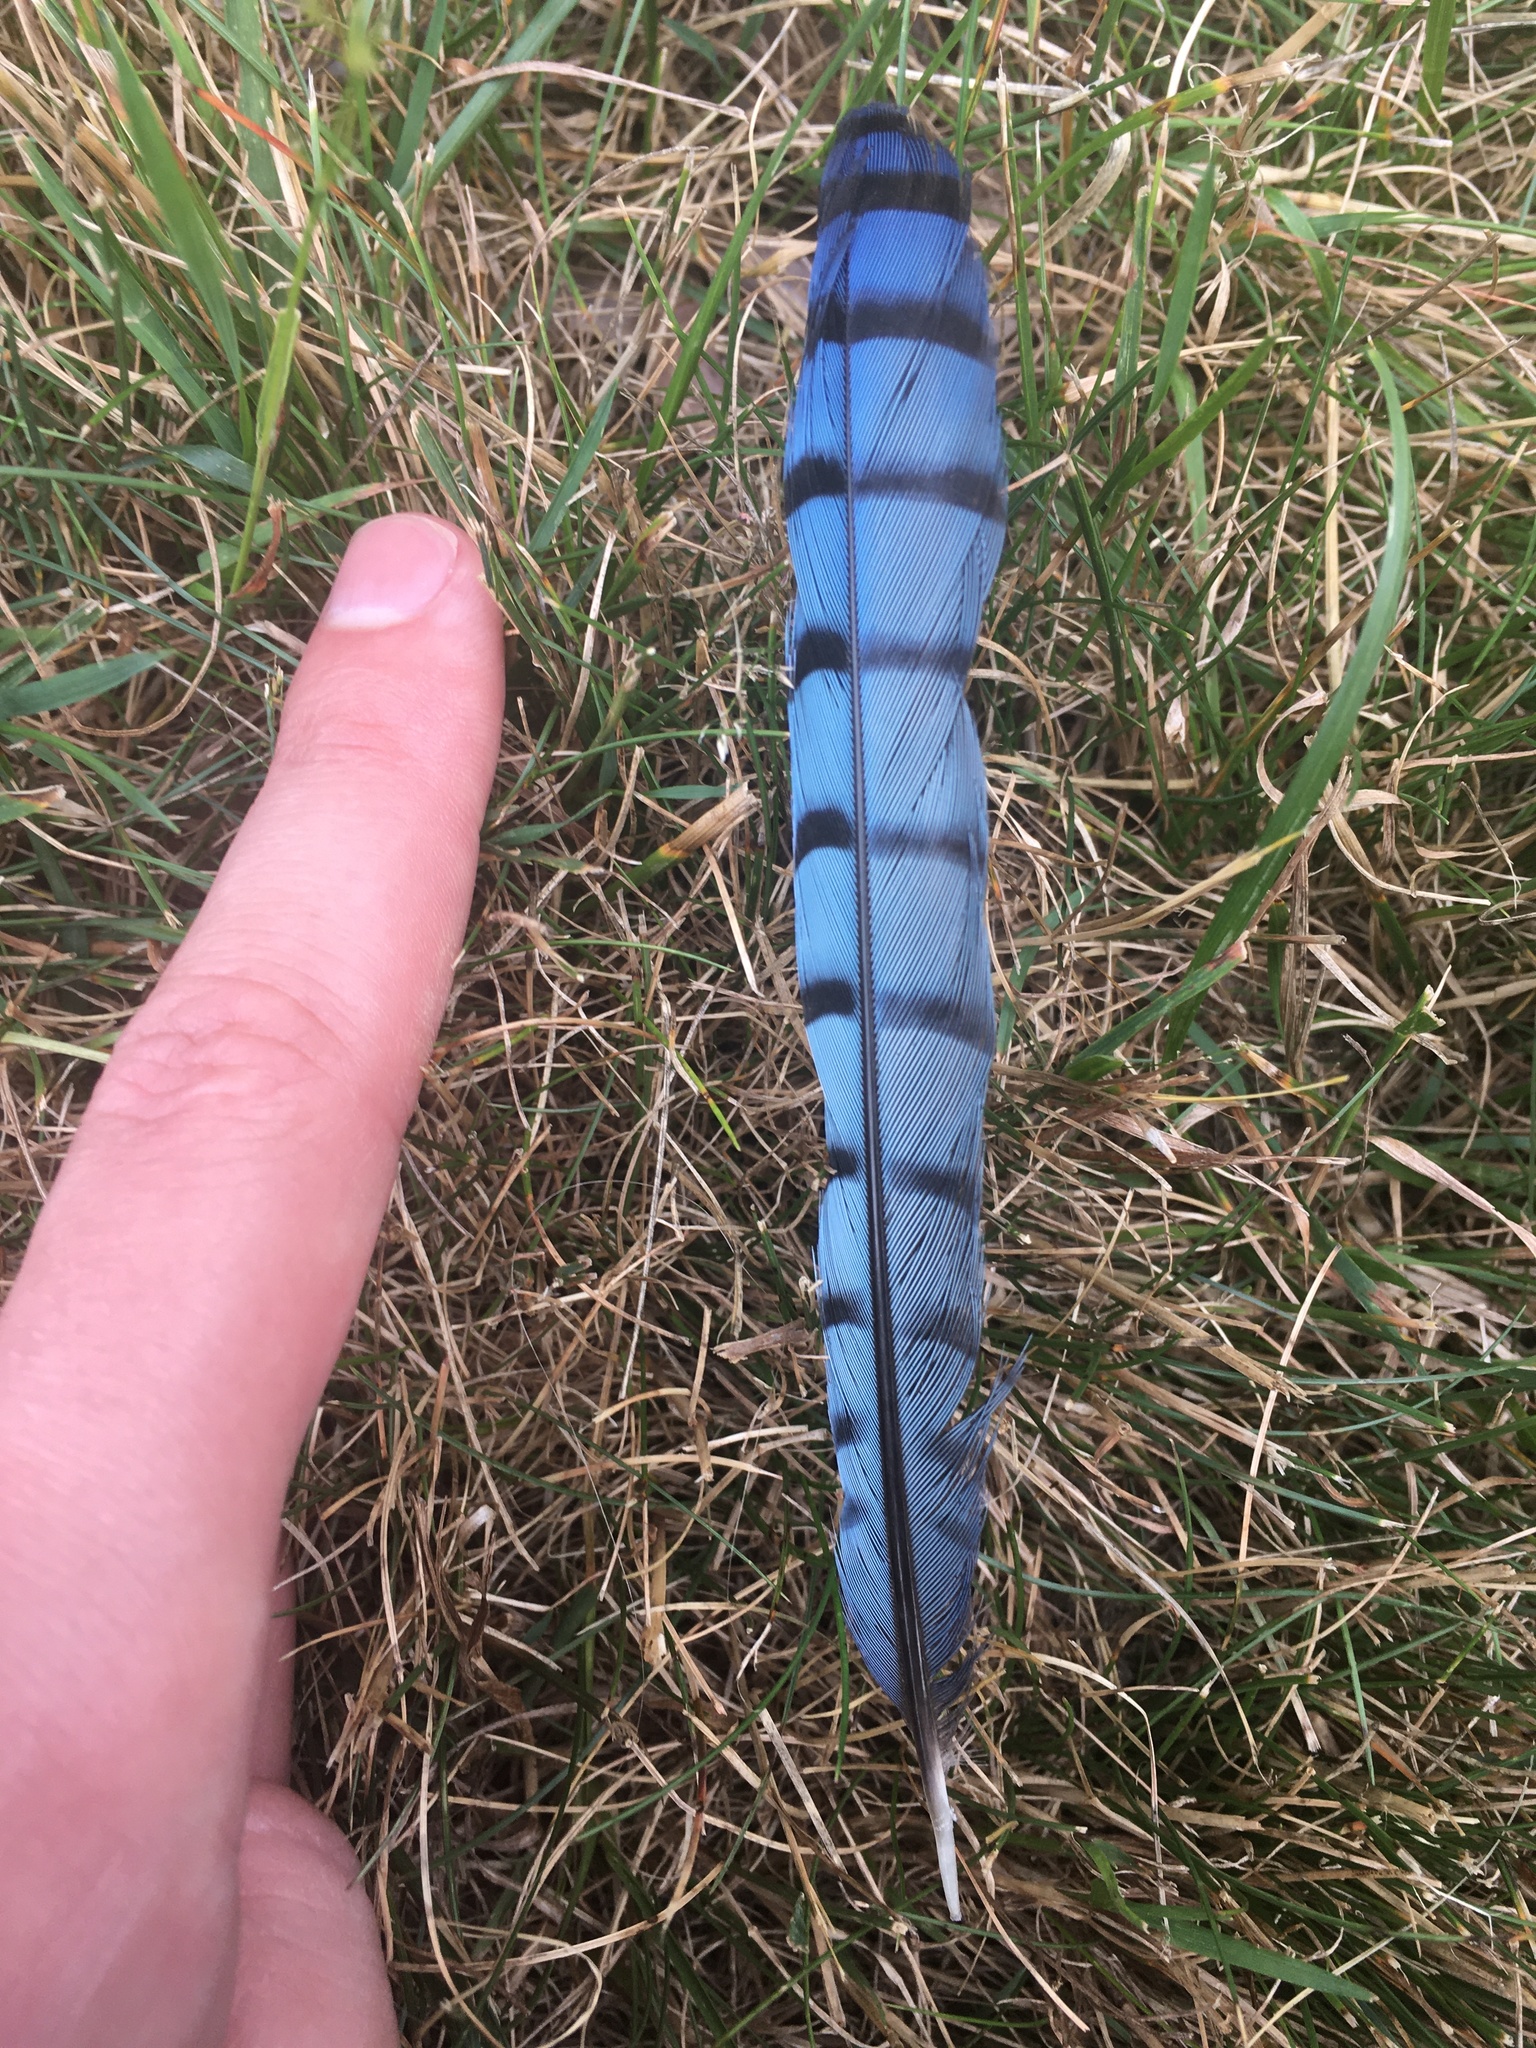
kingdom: Animalia
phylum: Chordata
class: Aves
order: Passeriformes
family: Corvidae
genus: Cyanocitta
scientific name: Cyanocitta cristata
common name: Blue jay
